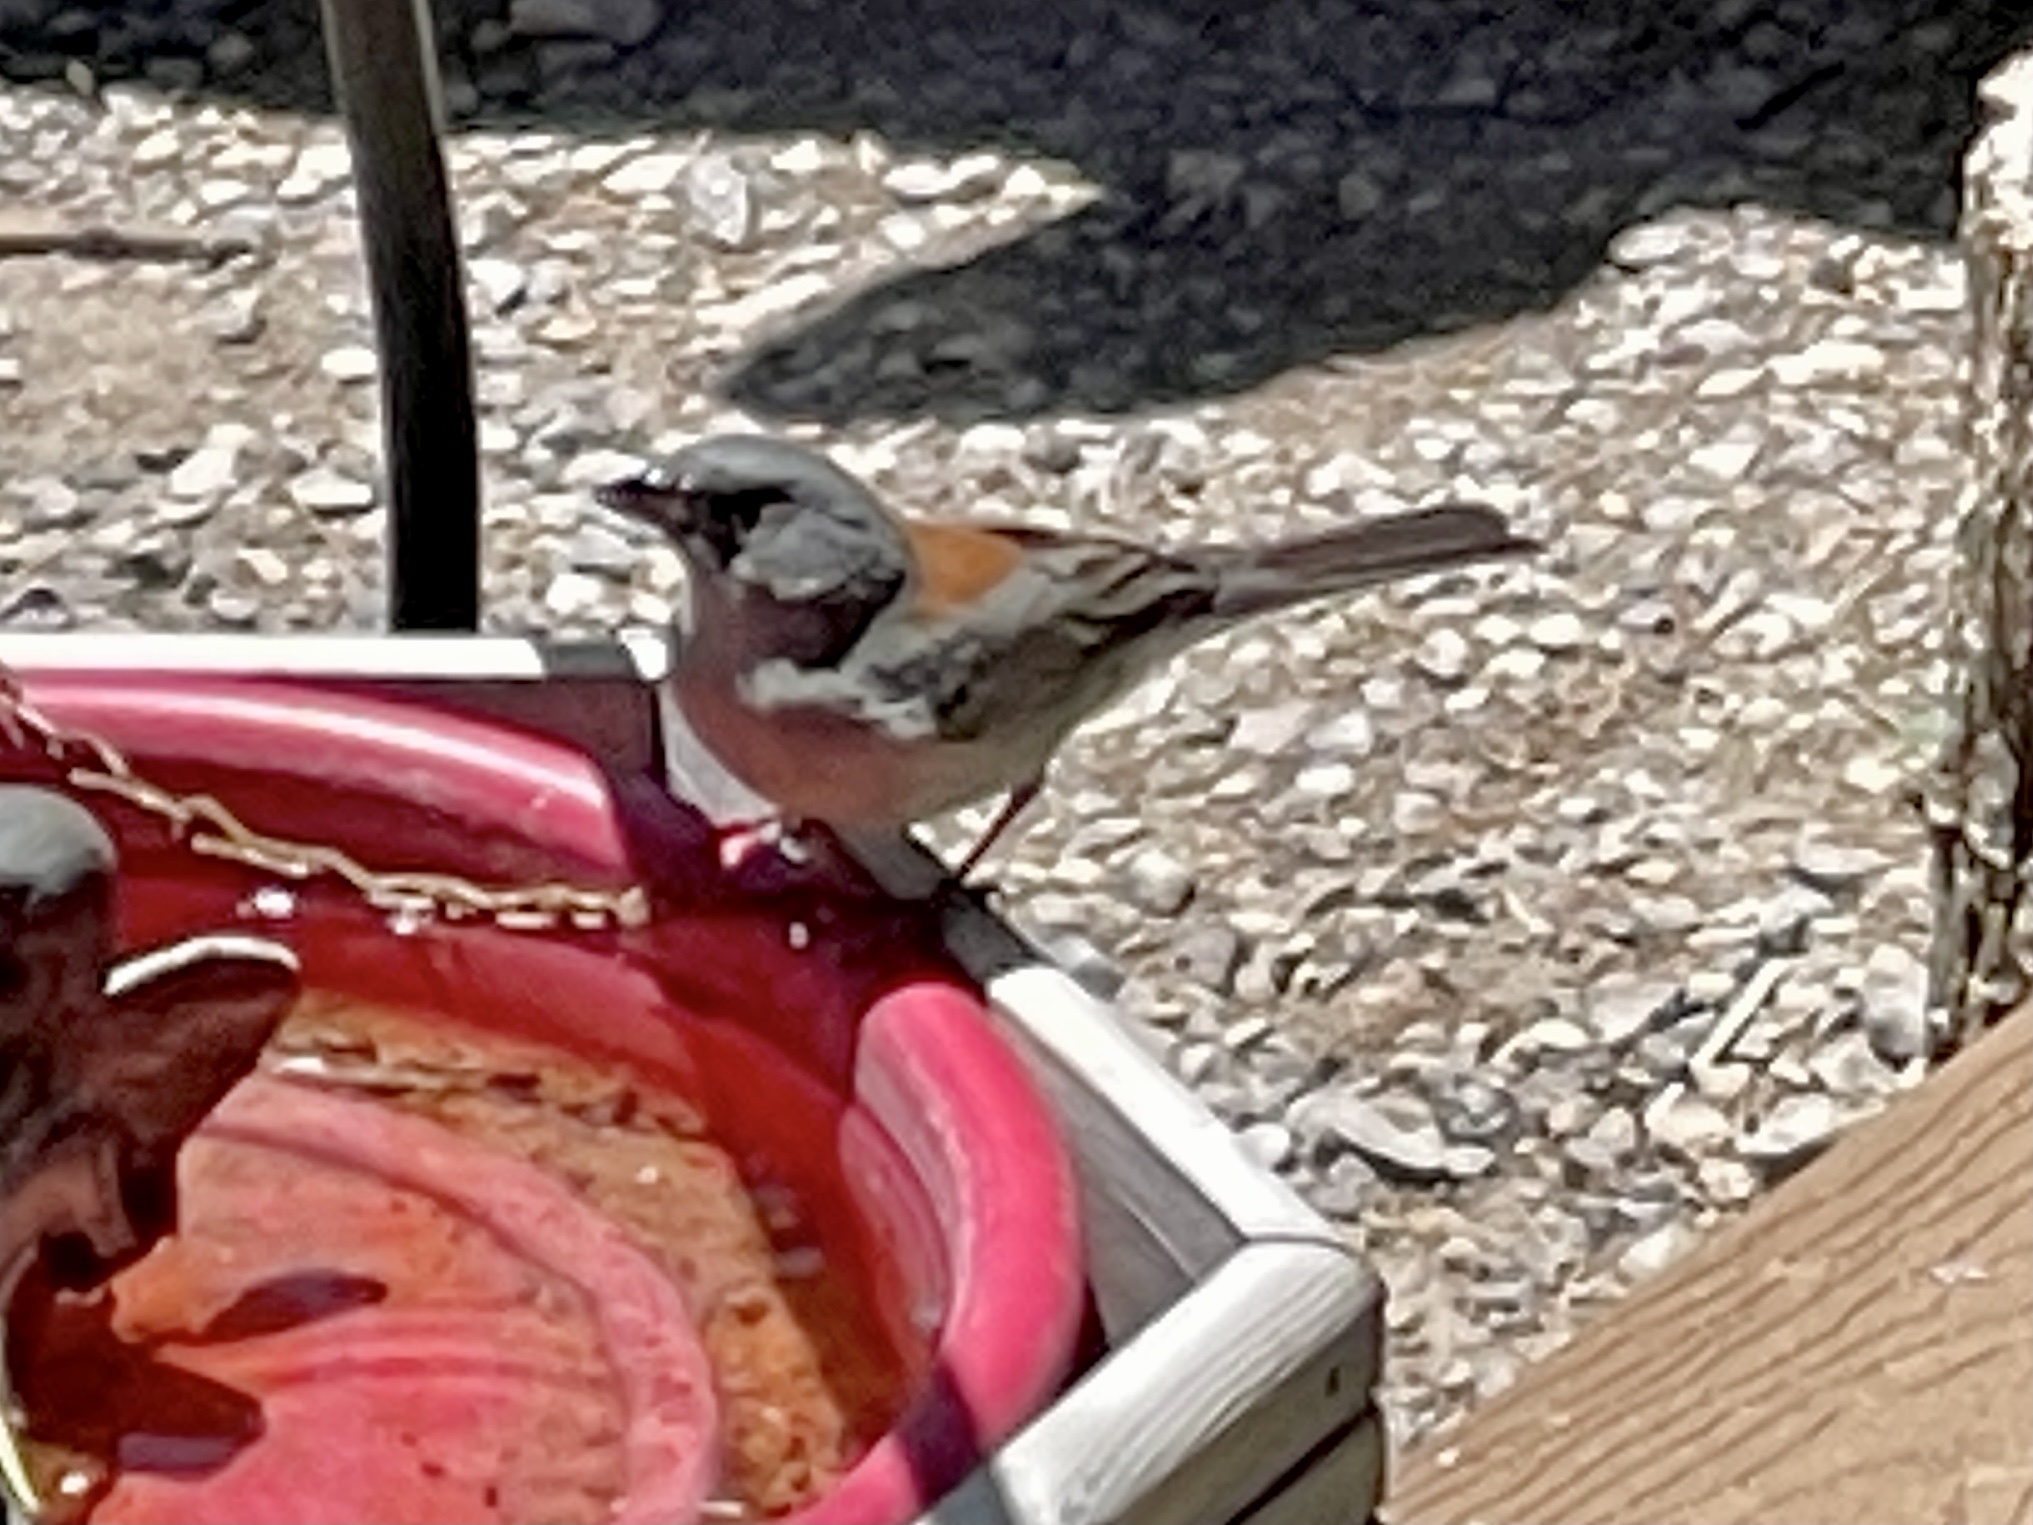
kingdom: Animalia
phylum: Chordata
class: Aves
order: Passeriformes
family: Passerellidae
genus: Junco
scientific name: Junco hyemalis
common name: Dark-eyed junco
